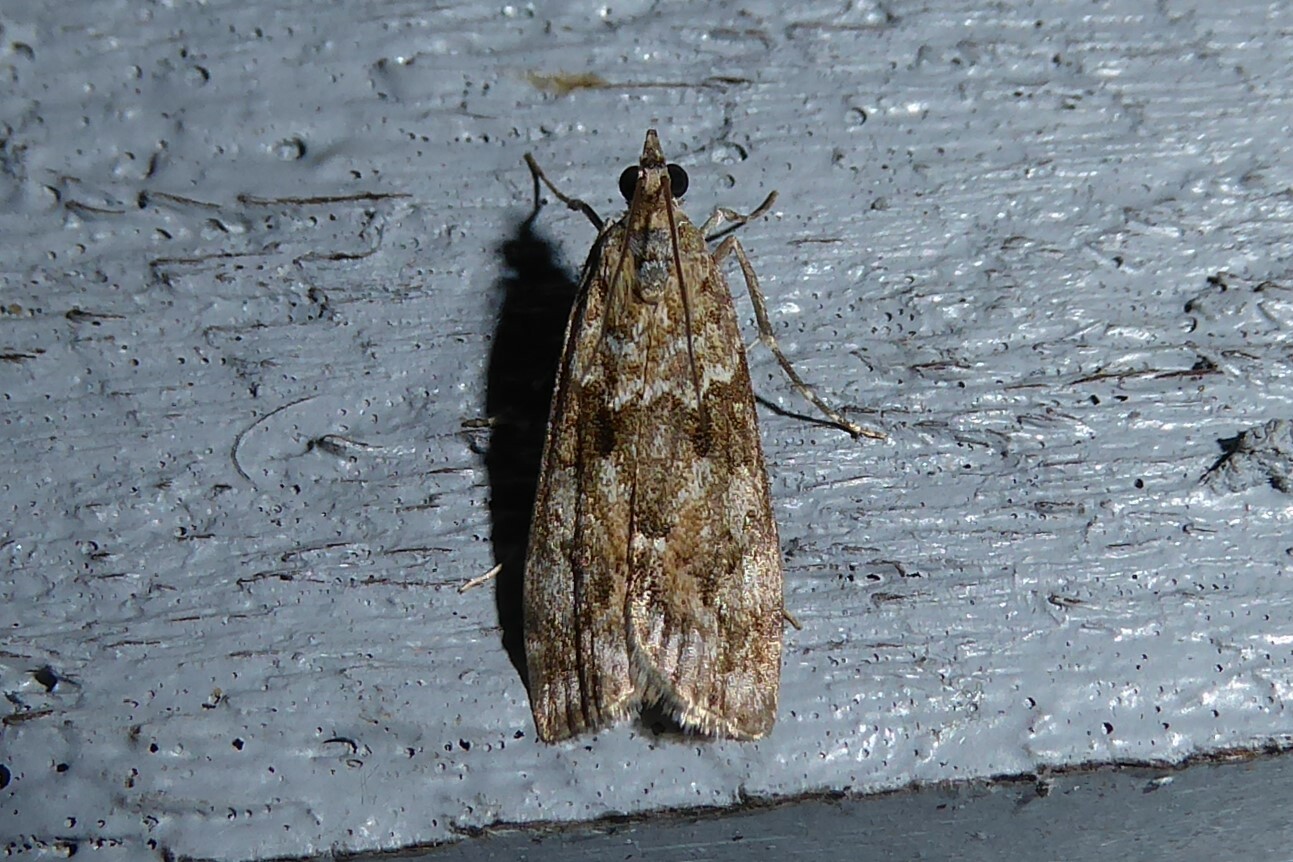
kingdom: Animalia
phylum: Arthropoda
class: Insecta
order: Lepidoptera
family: Crambidae
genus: Eudonia
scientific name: Eudonia submarginalis
